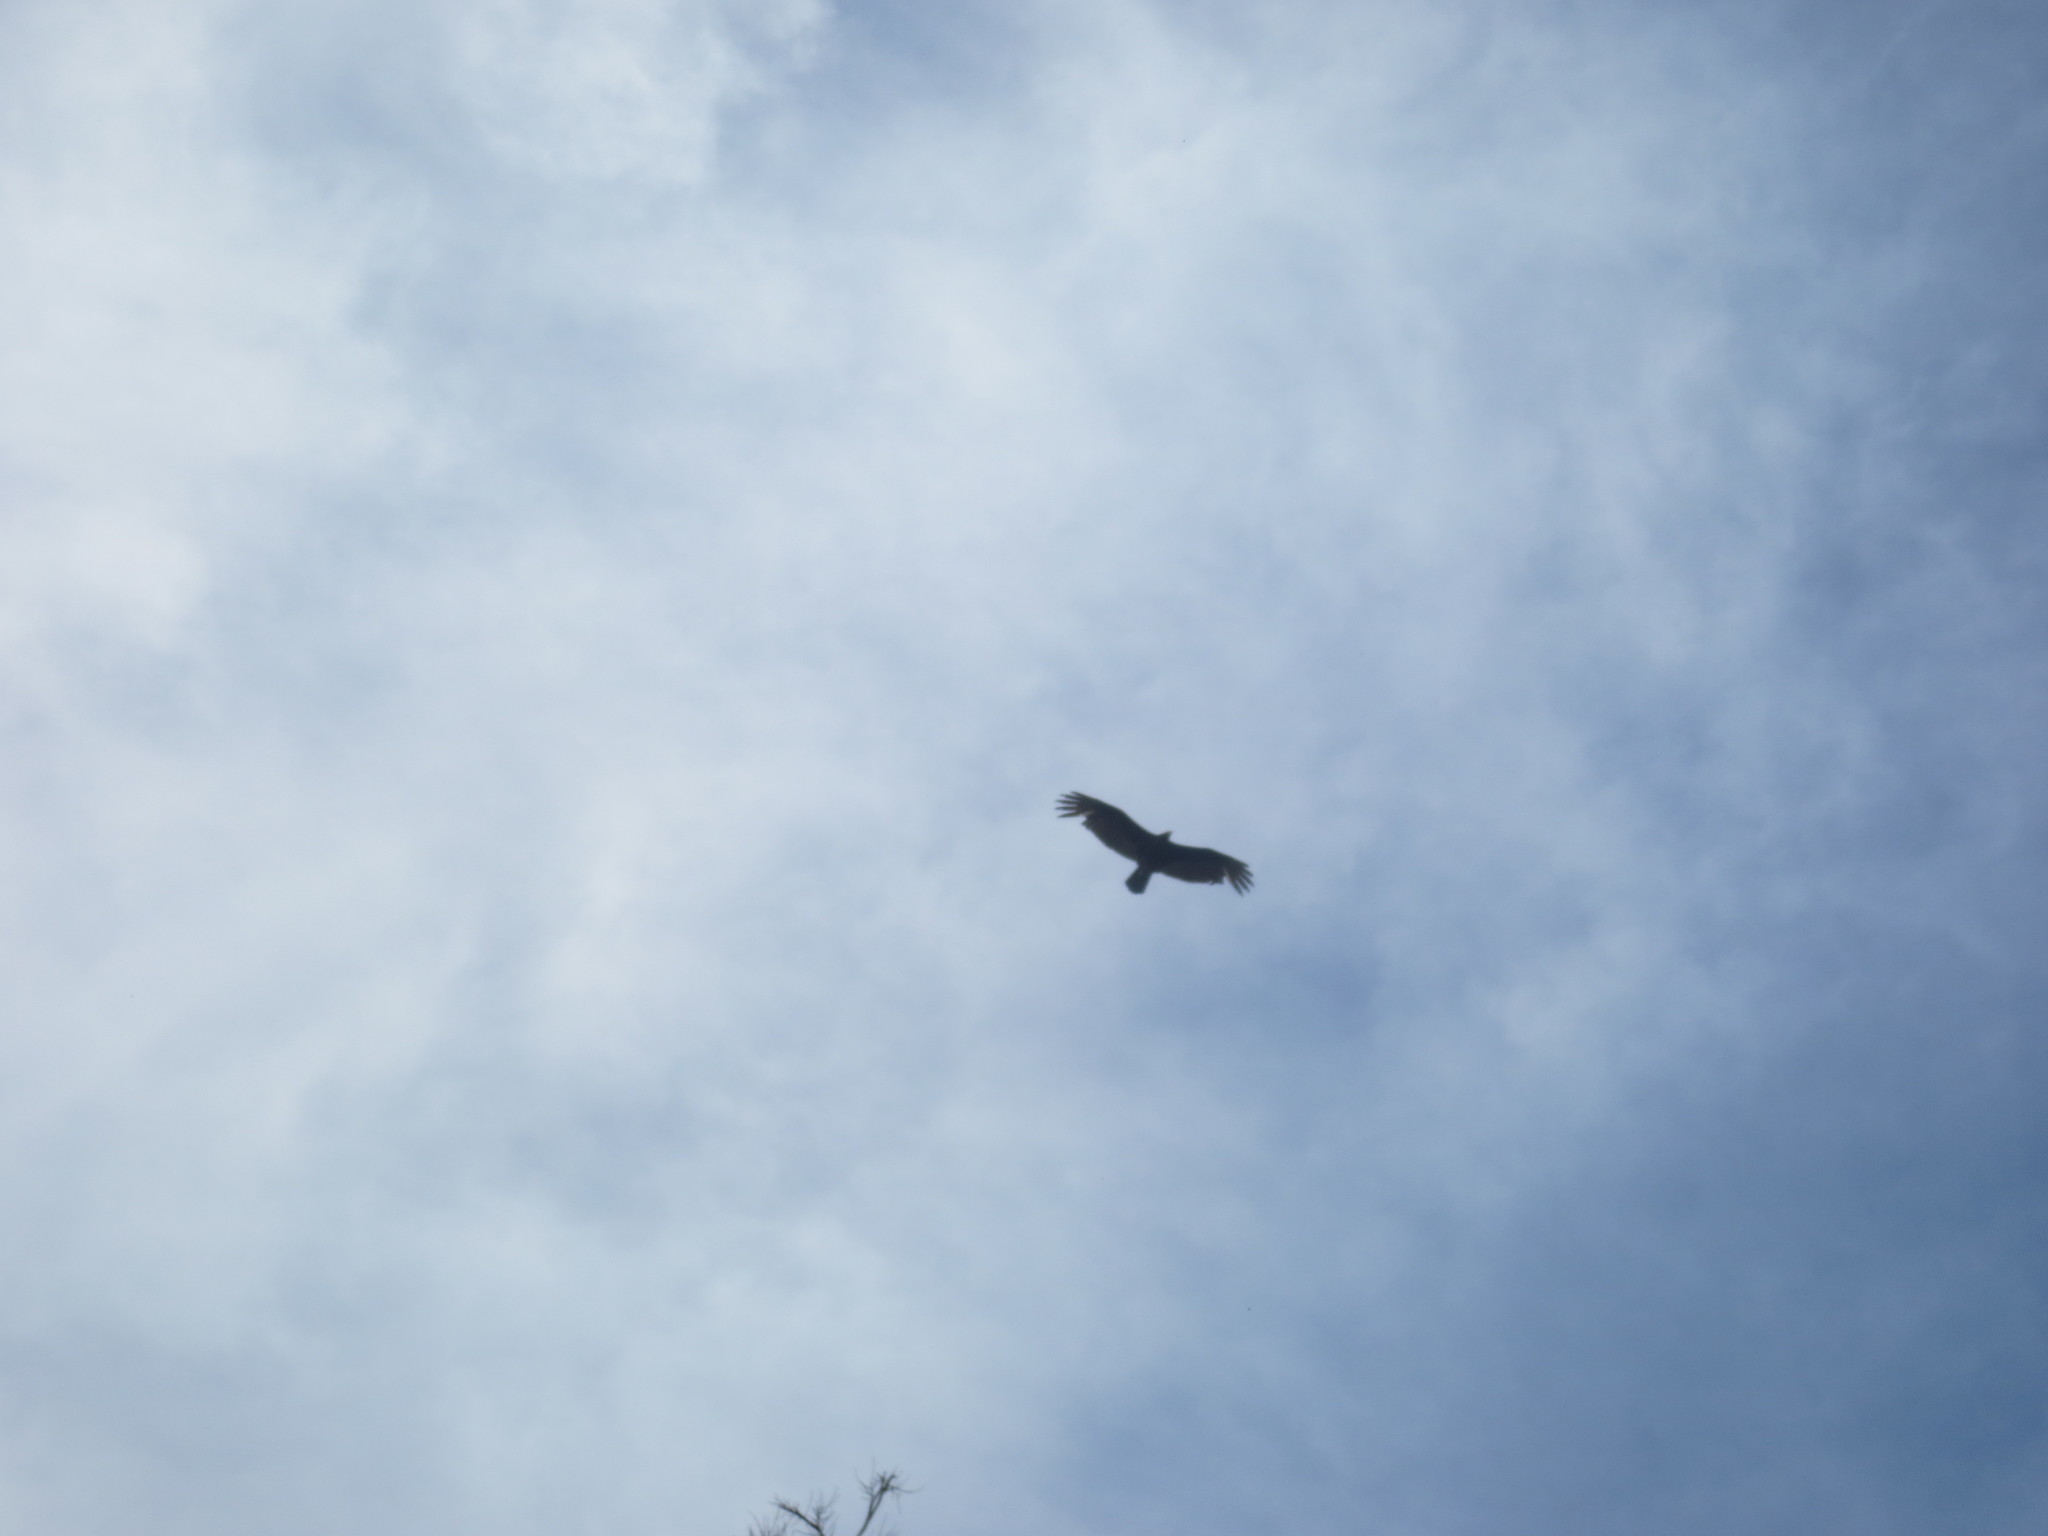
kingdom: Animalia
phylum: Chordata
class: Aves
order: Accipitriformes
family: Cathartidae
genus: Cathartes
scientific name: Cathartes aura
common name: Turkey vulture
